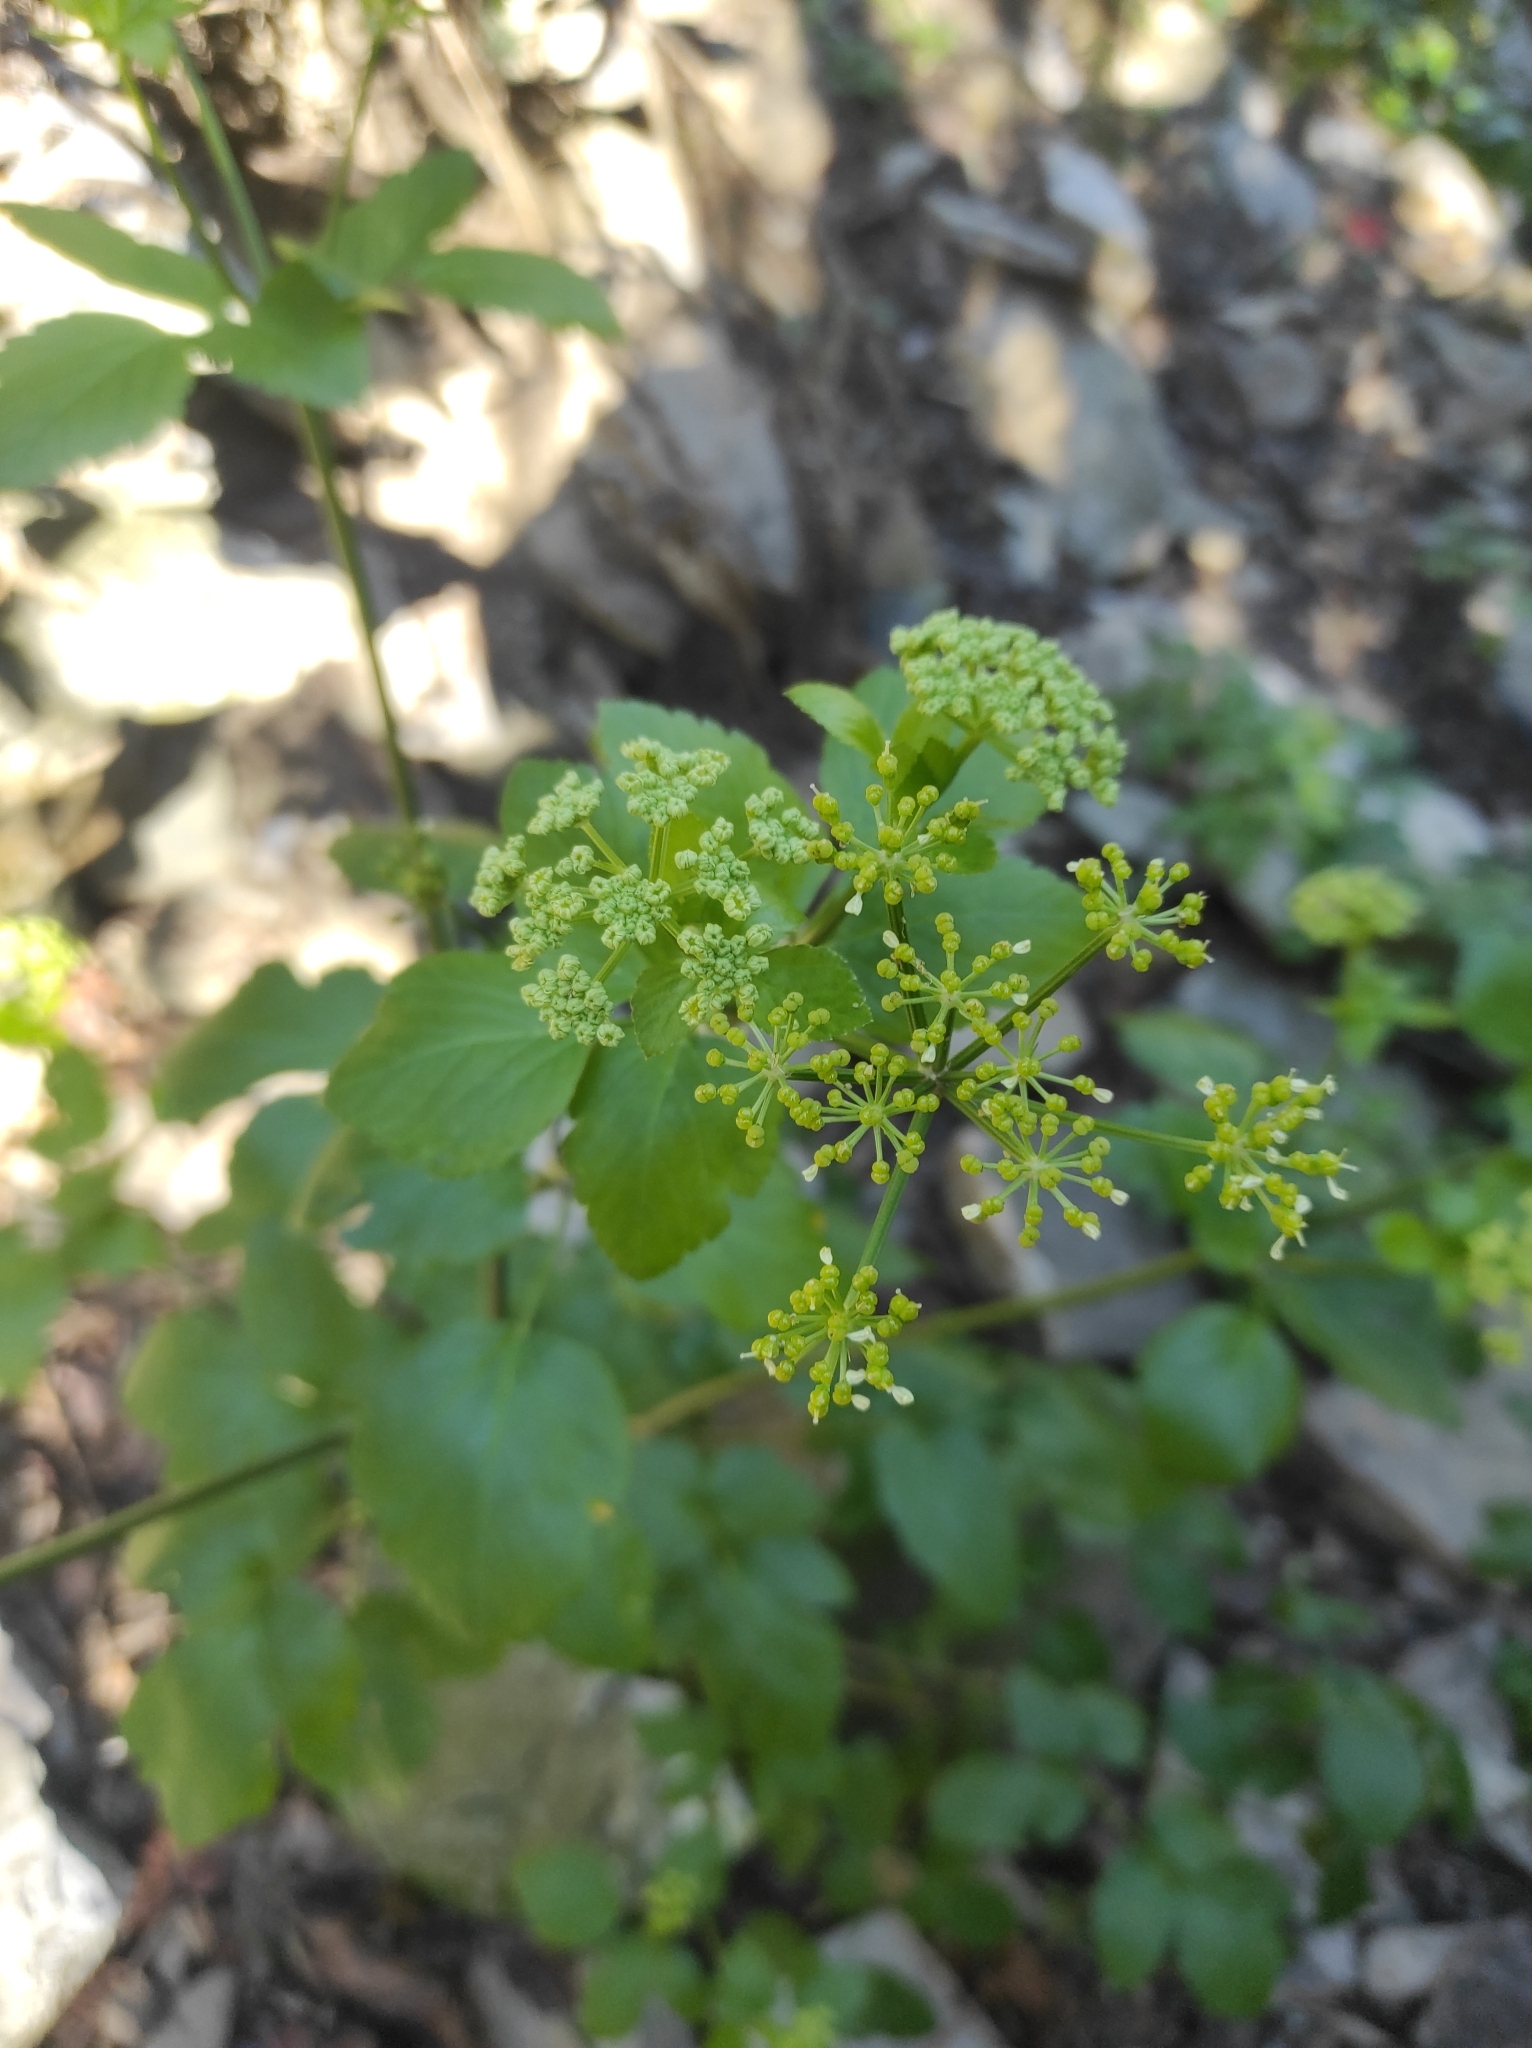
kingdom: Plantae
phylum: Tracheophyta
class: Magnoliopsida
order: Apiales
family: Apiaceae
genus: Smyrnium
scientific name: Smyrnium olusatrum
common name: Alexanders
